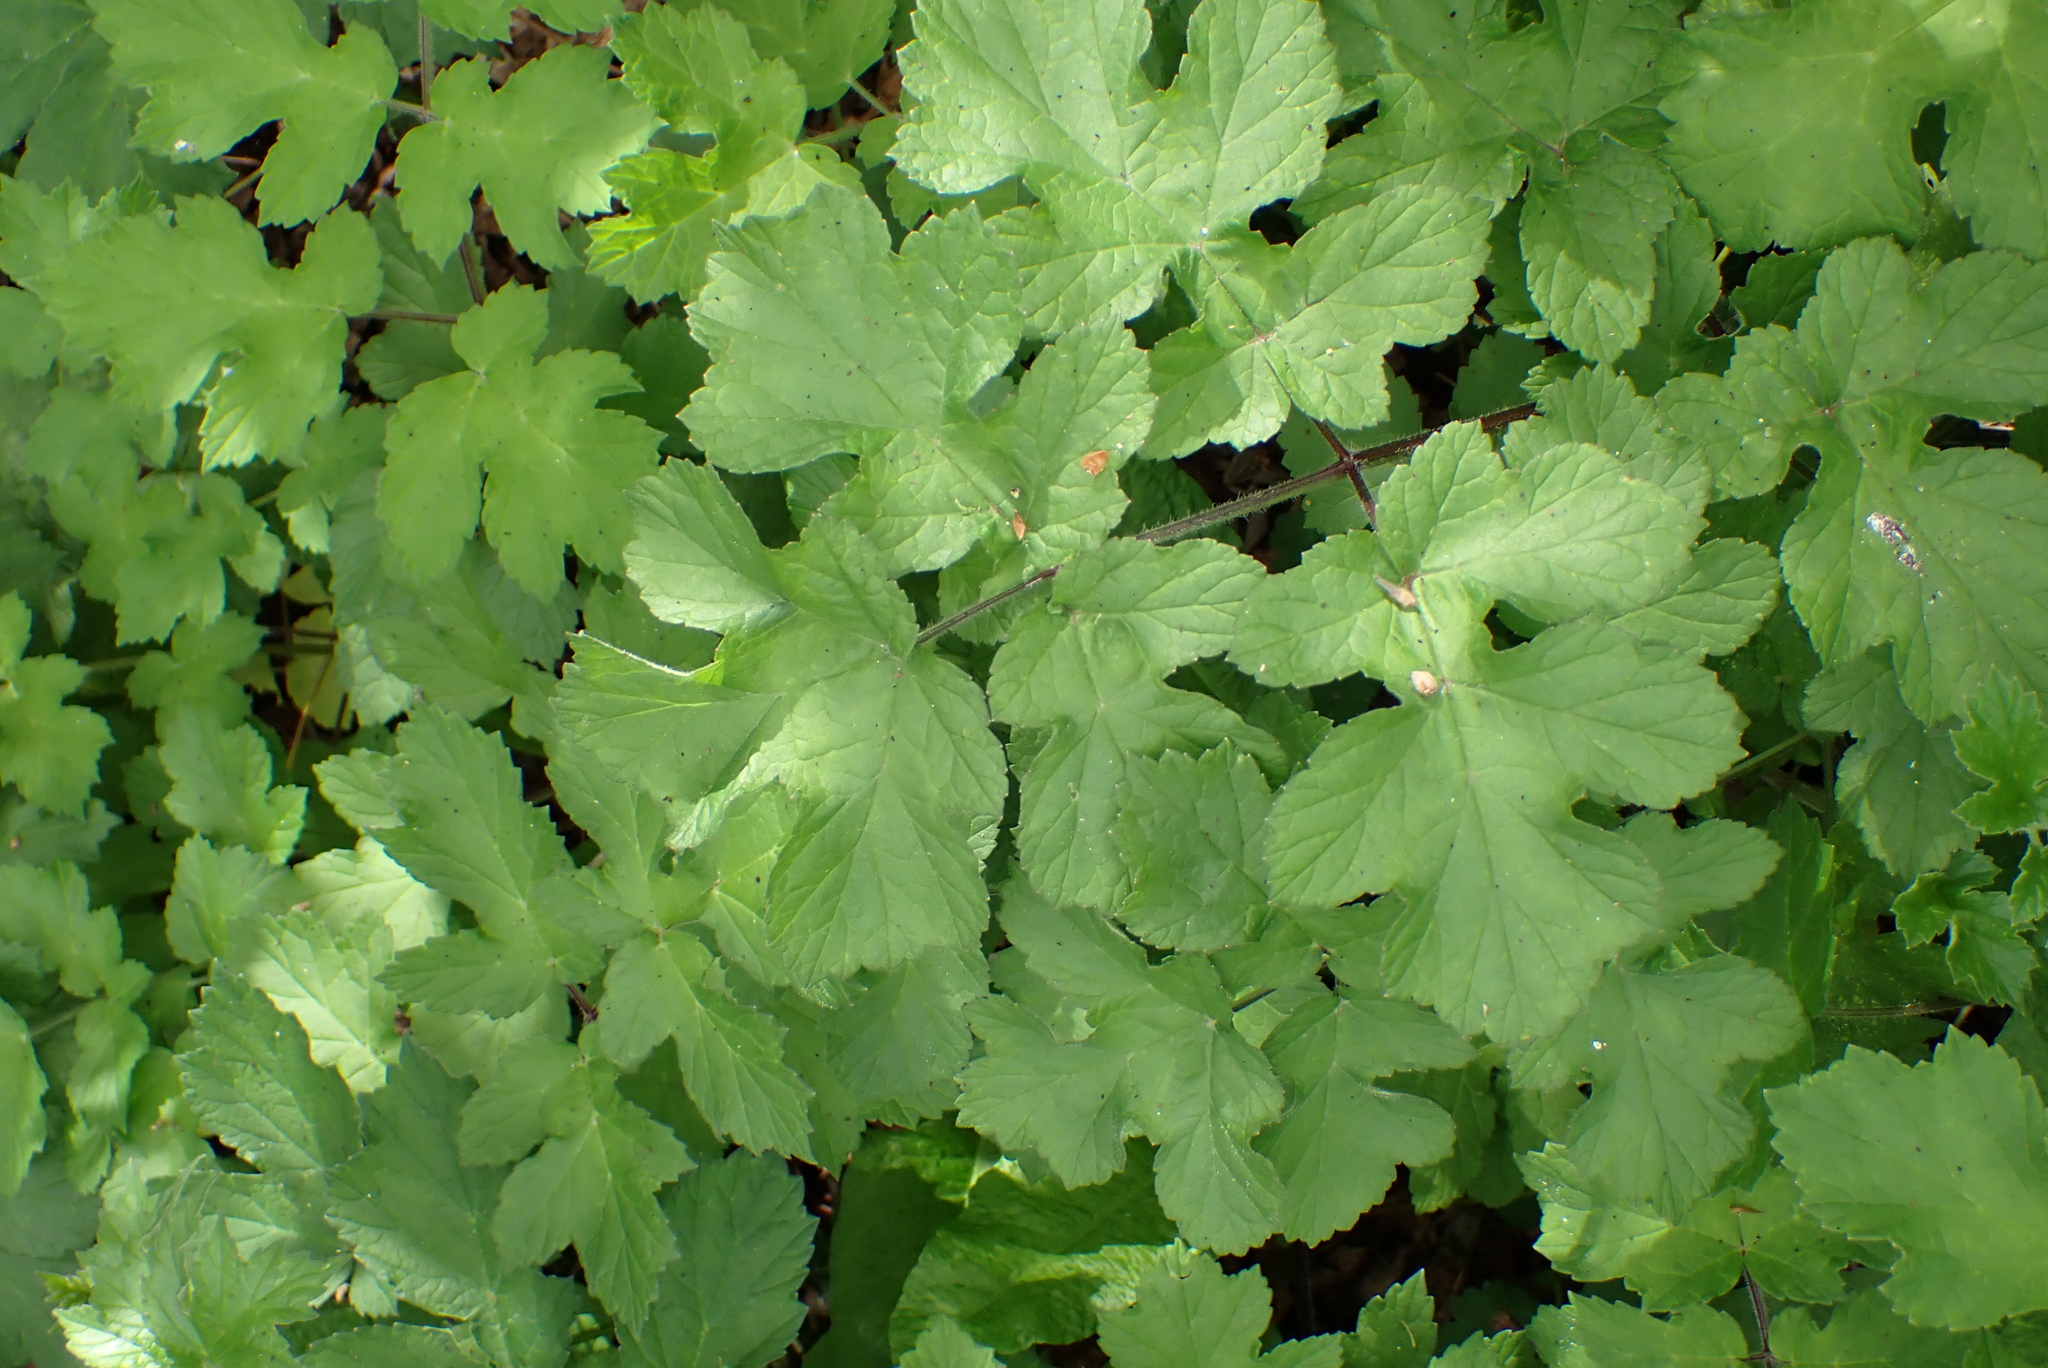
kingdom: Plantae
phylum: Tracheophyta
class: Magnoliopsida
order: Apiales
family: Apiaceae
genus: Heracleum
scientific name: Heracleum sphondylium
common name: Hogweed
